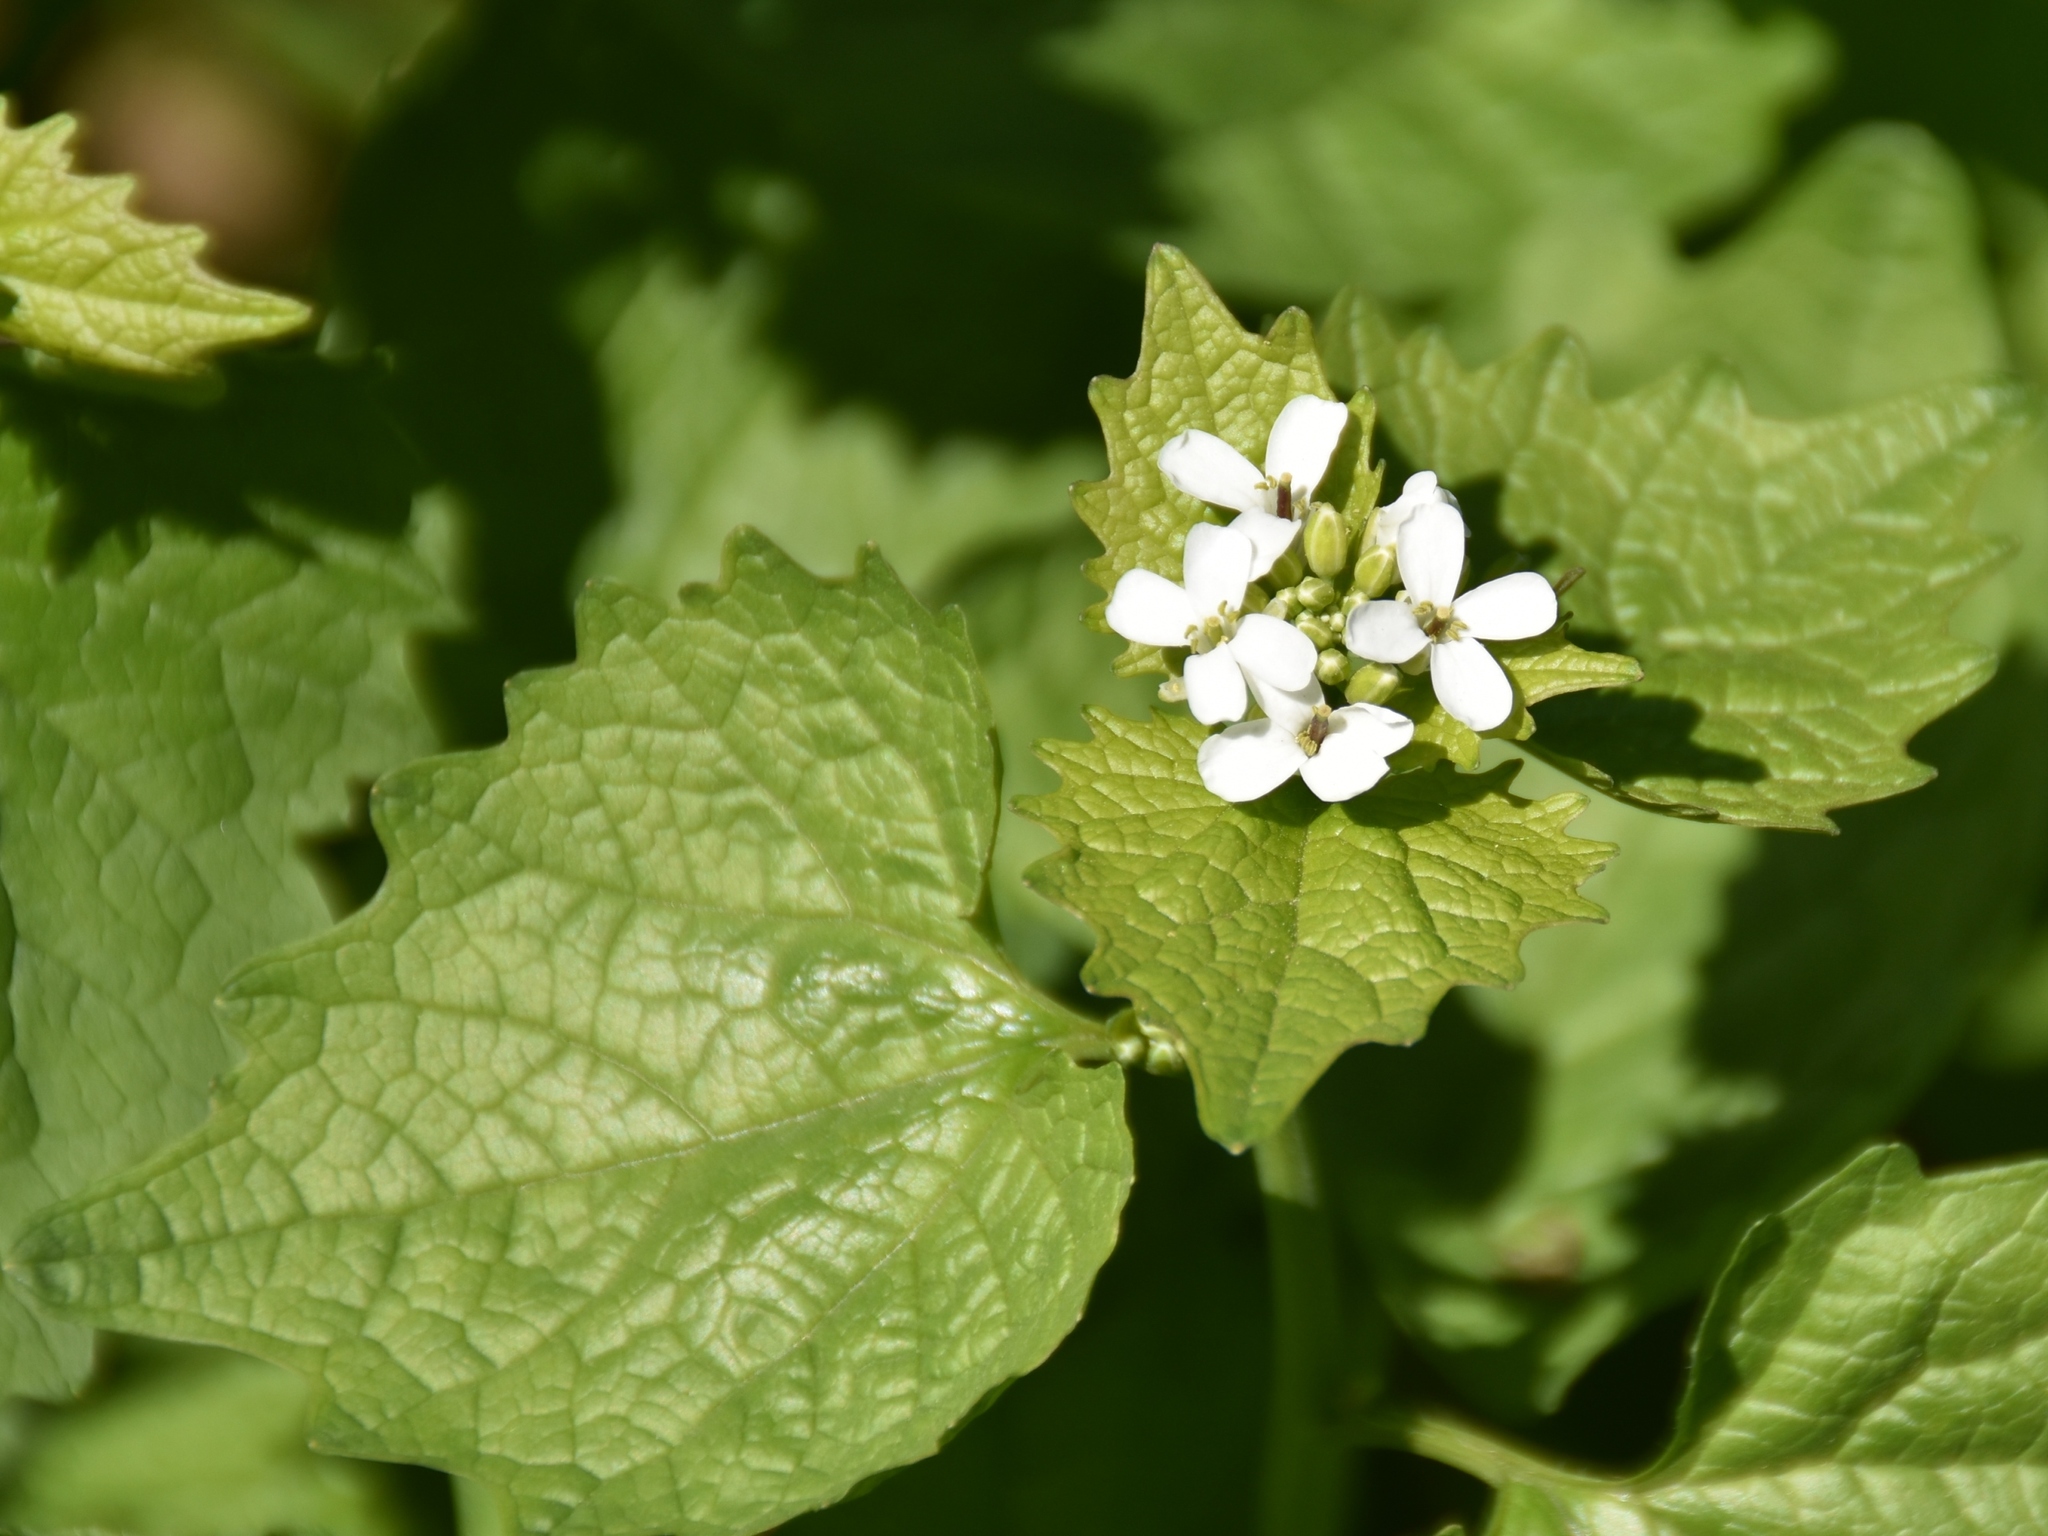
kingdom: Plantae
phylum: Tracheophyta
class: Magnoliopsida
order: Brassicales
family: Brassicaceae
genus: Alliaria
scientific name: Alliaria petiolata
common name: Garlic mustard
